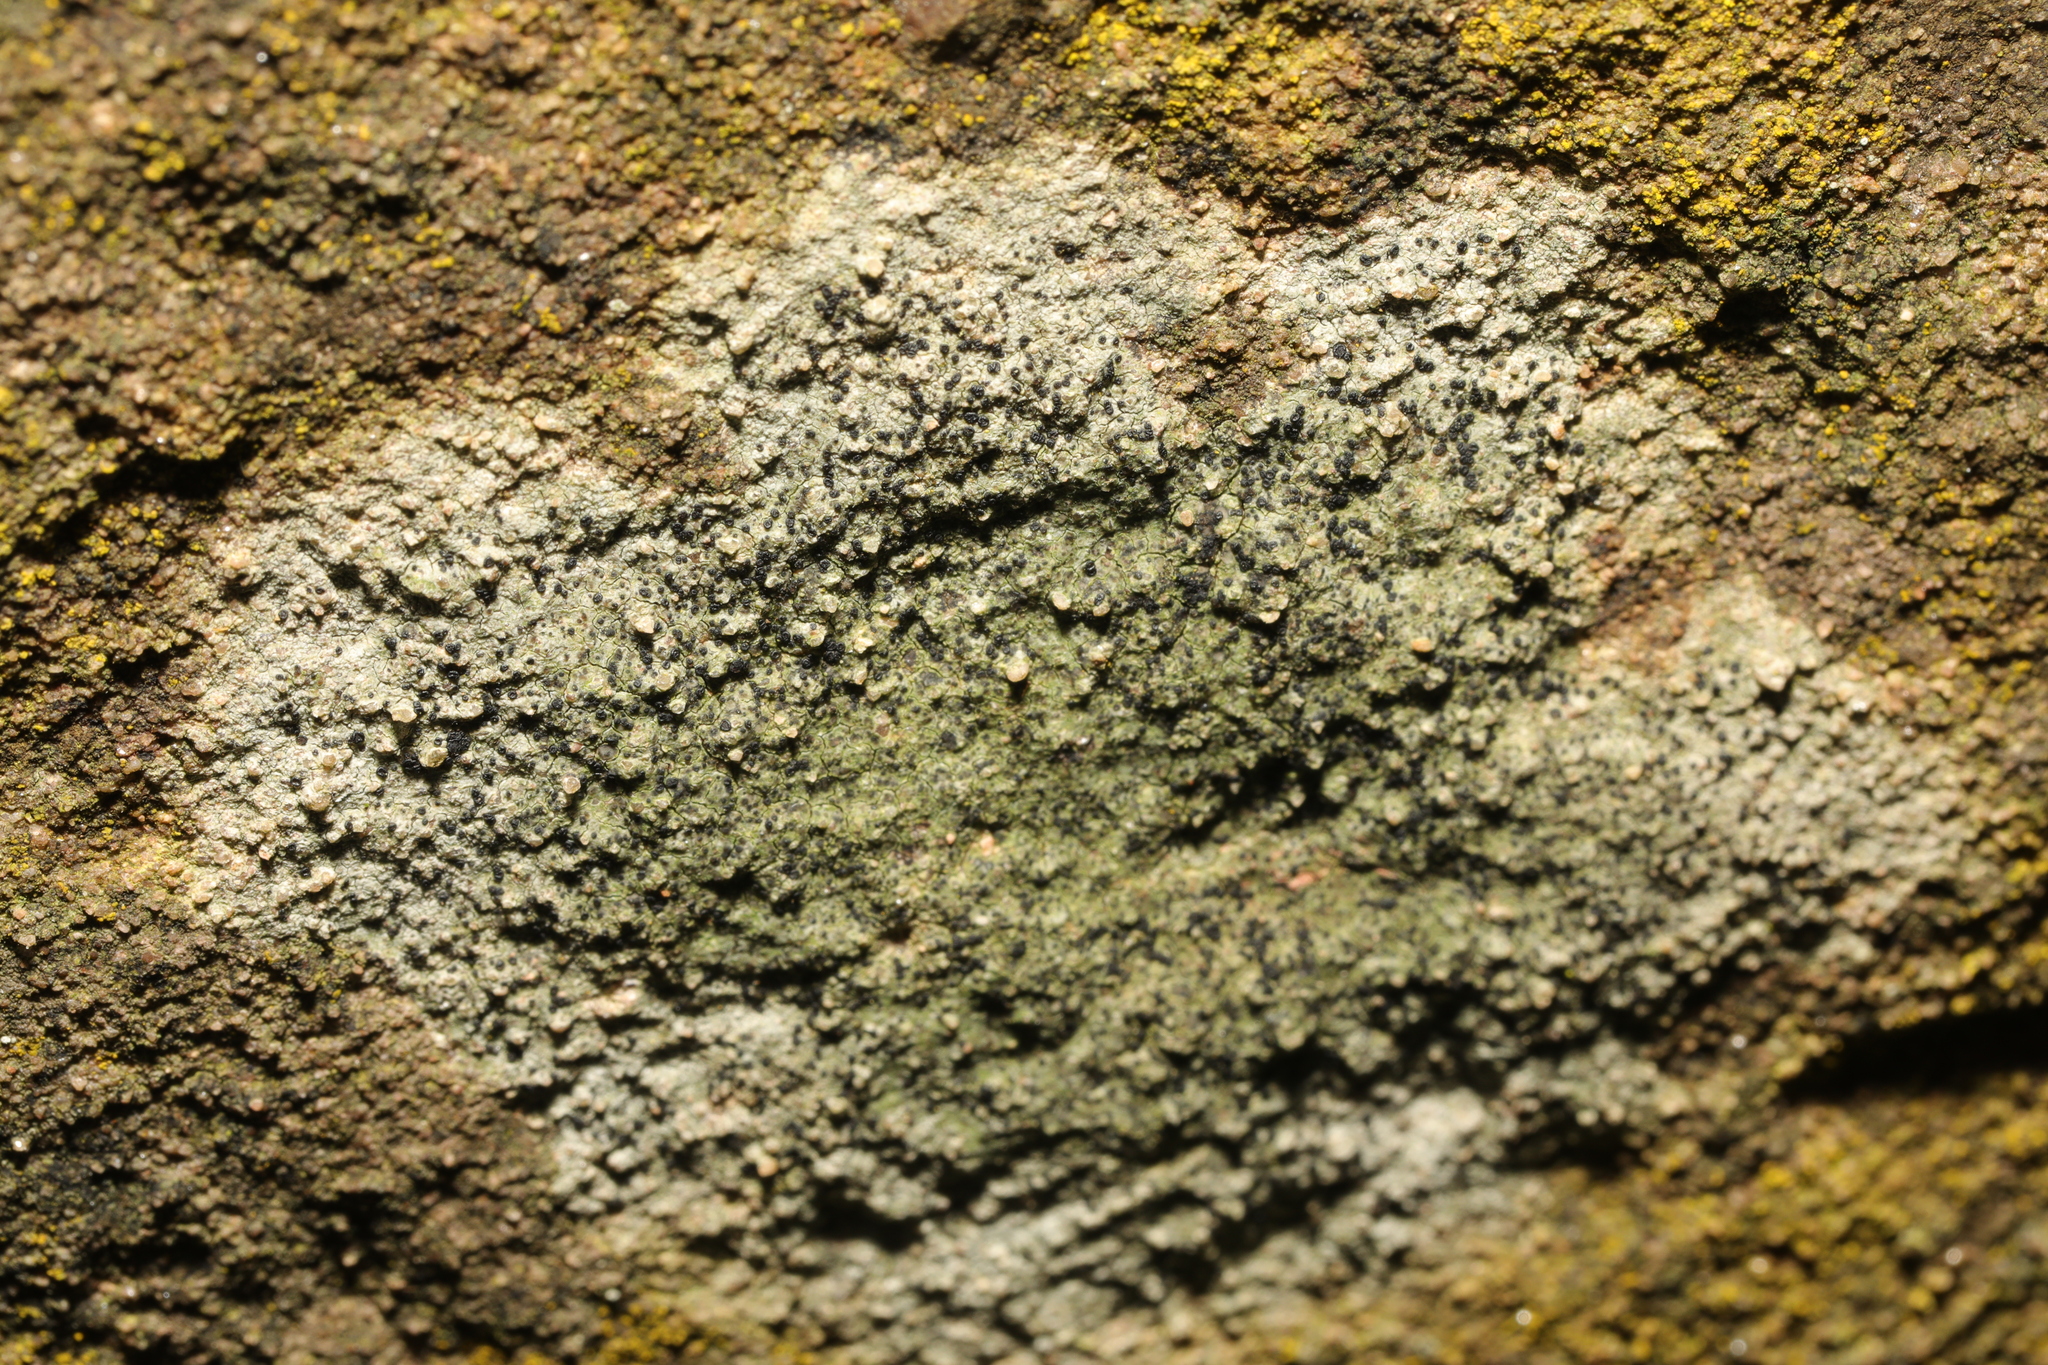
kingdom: Fungi
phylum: Ascomycota
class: Lecanoromycetes
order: Lecanorales
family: Lecanoraceae
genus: Lecidella
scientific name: Lecidella stigmatea
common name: Limestone disc lichen
